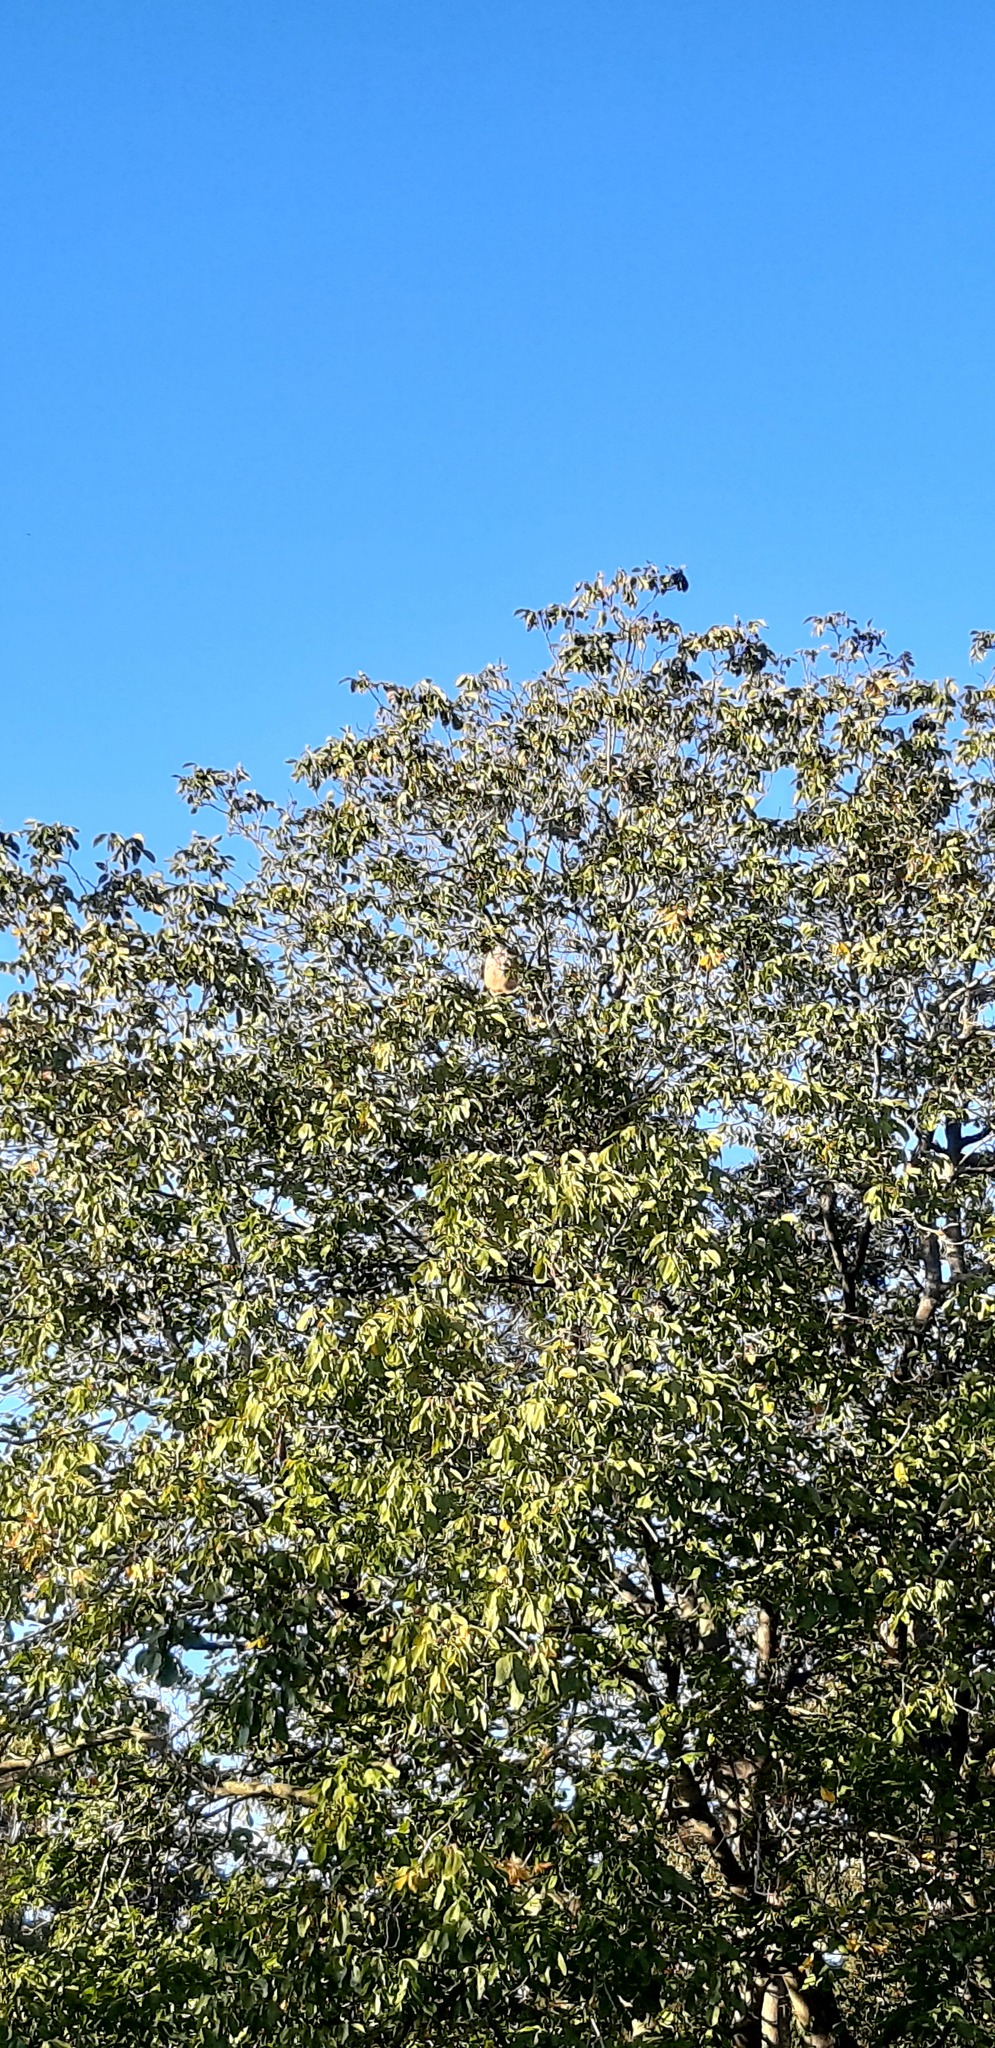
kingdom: Animalia
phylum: Arthropoda
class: Insecta
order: Hymenoptera
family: Vespidae
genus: Vespa
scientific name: Vespa velutina
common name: Asian hornet
